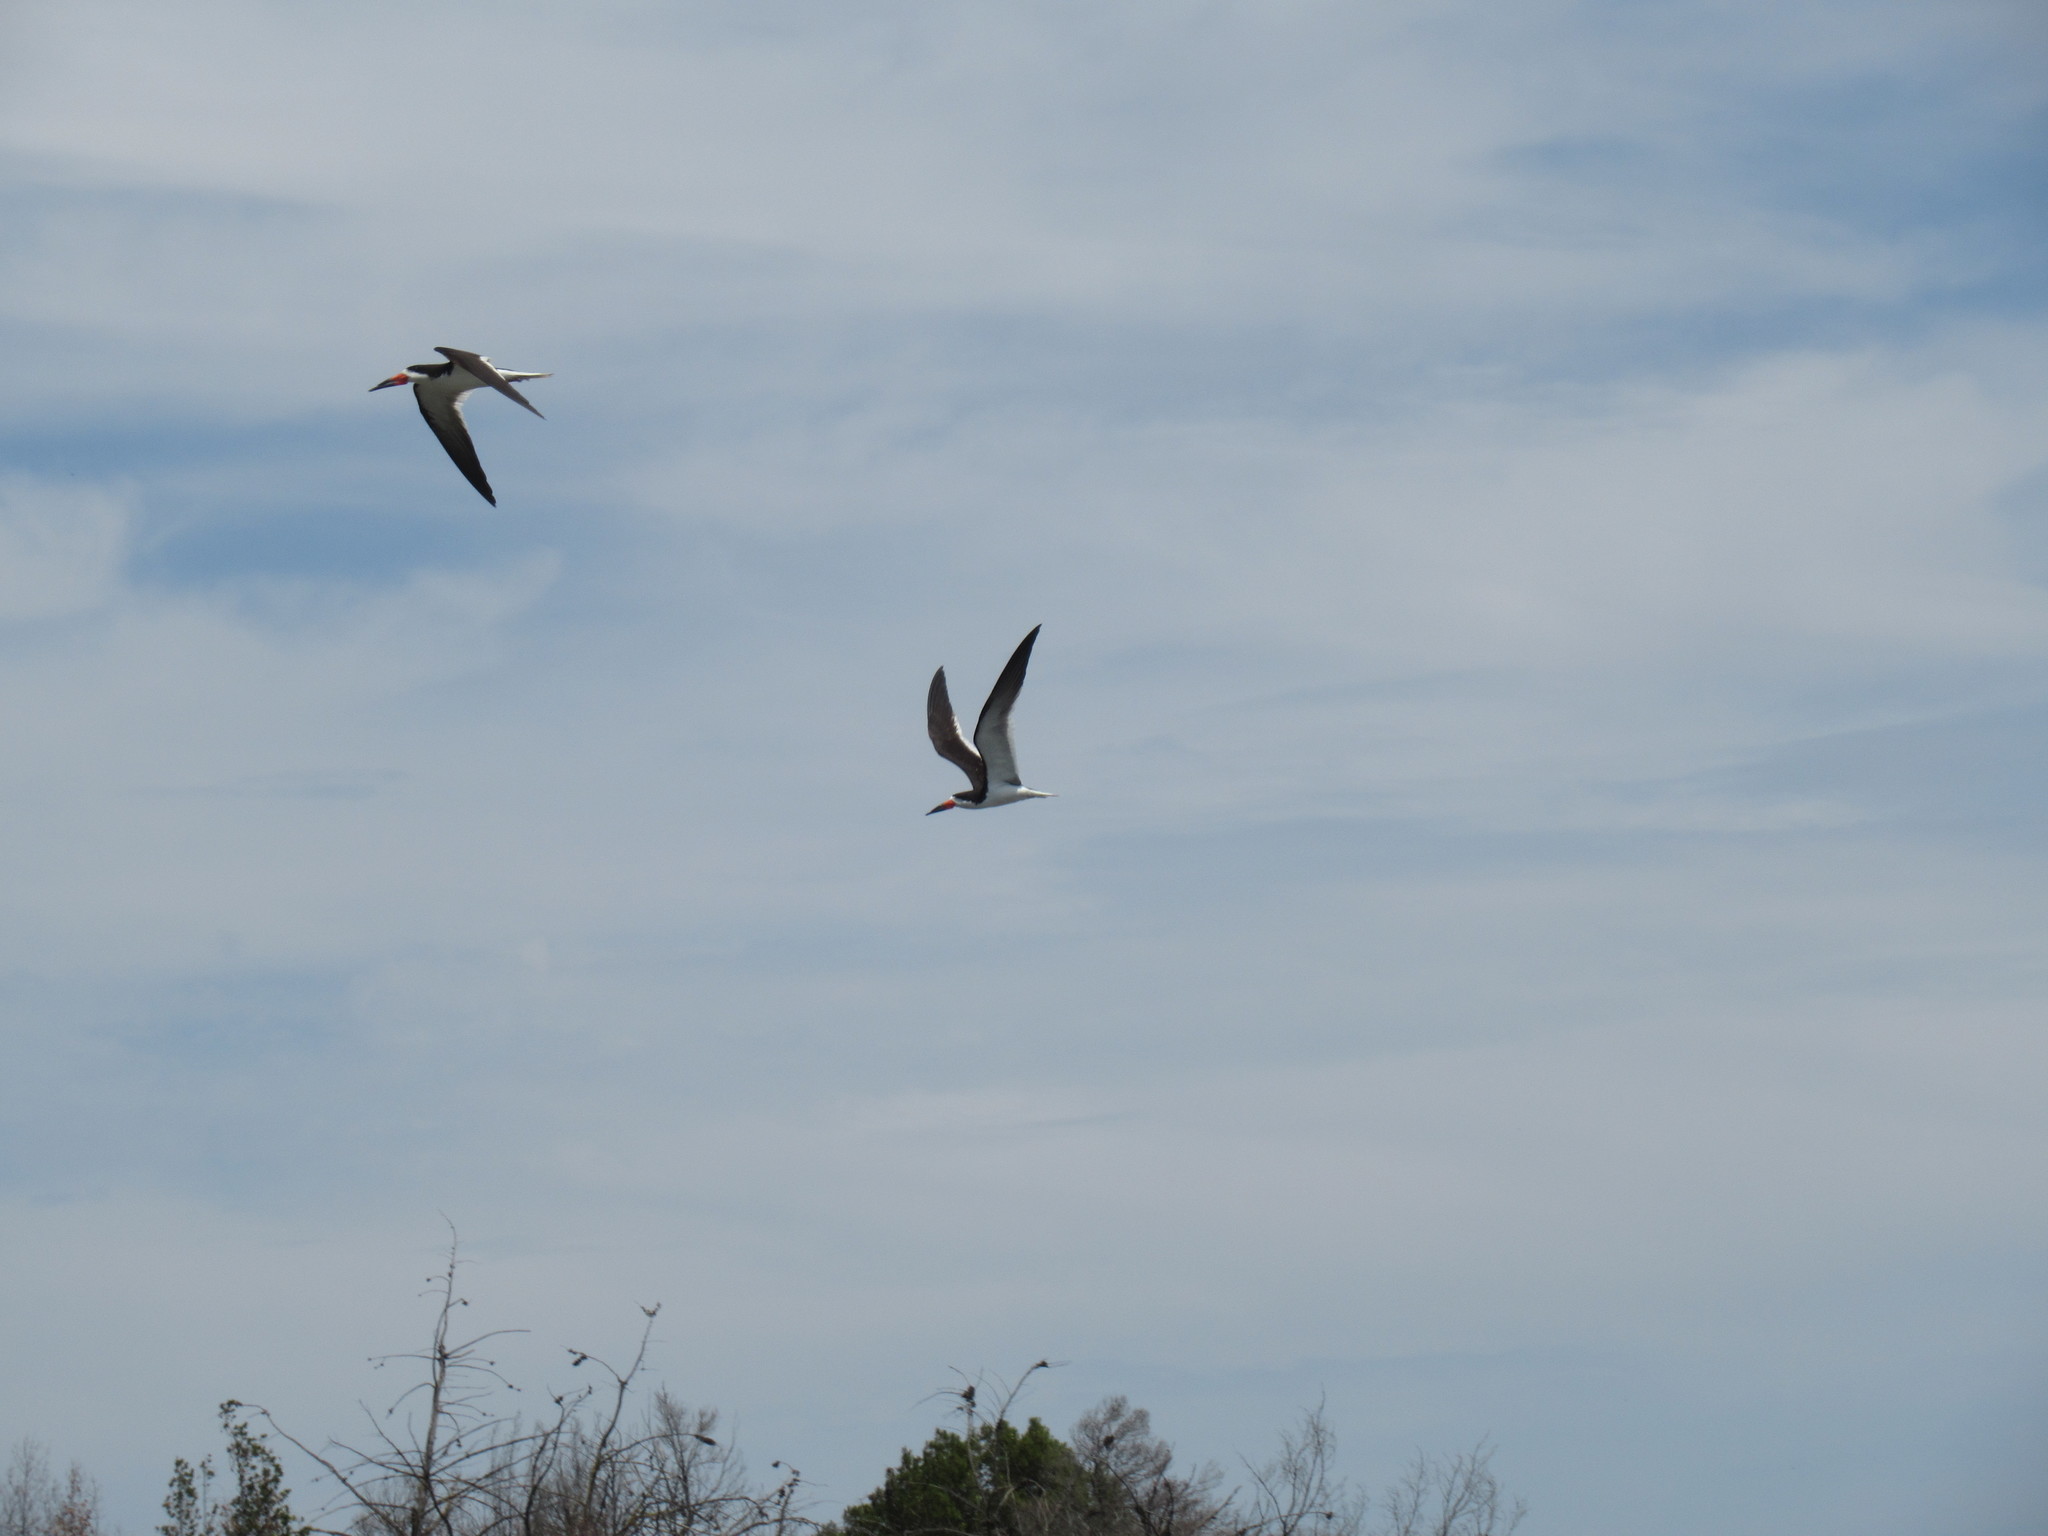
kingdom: Animalia
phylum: Chordata
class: Aves
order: Charadriiformes
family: Laridae
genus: Rynchops
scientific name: Rynchops niger
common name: Black skimmer
